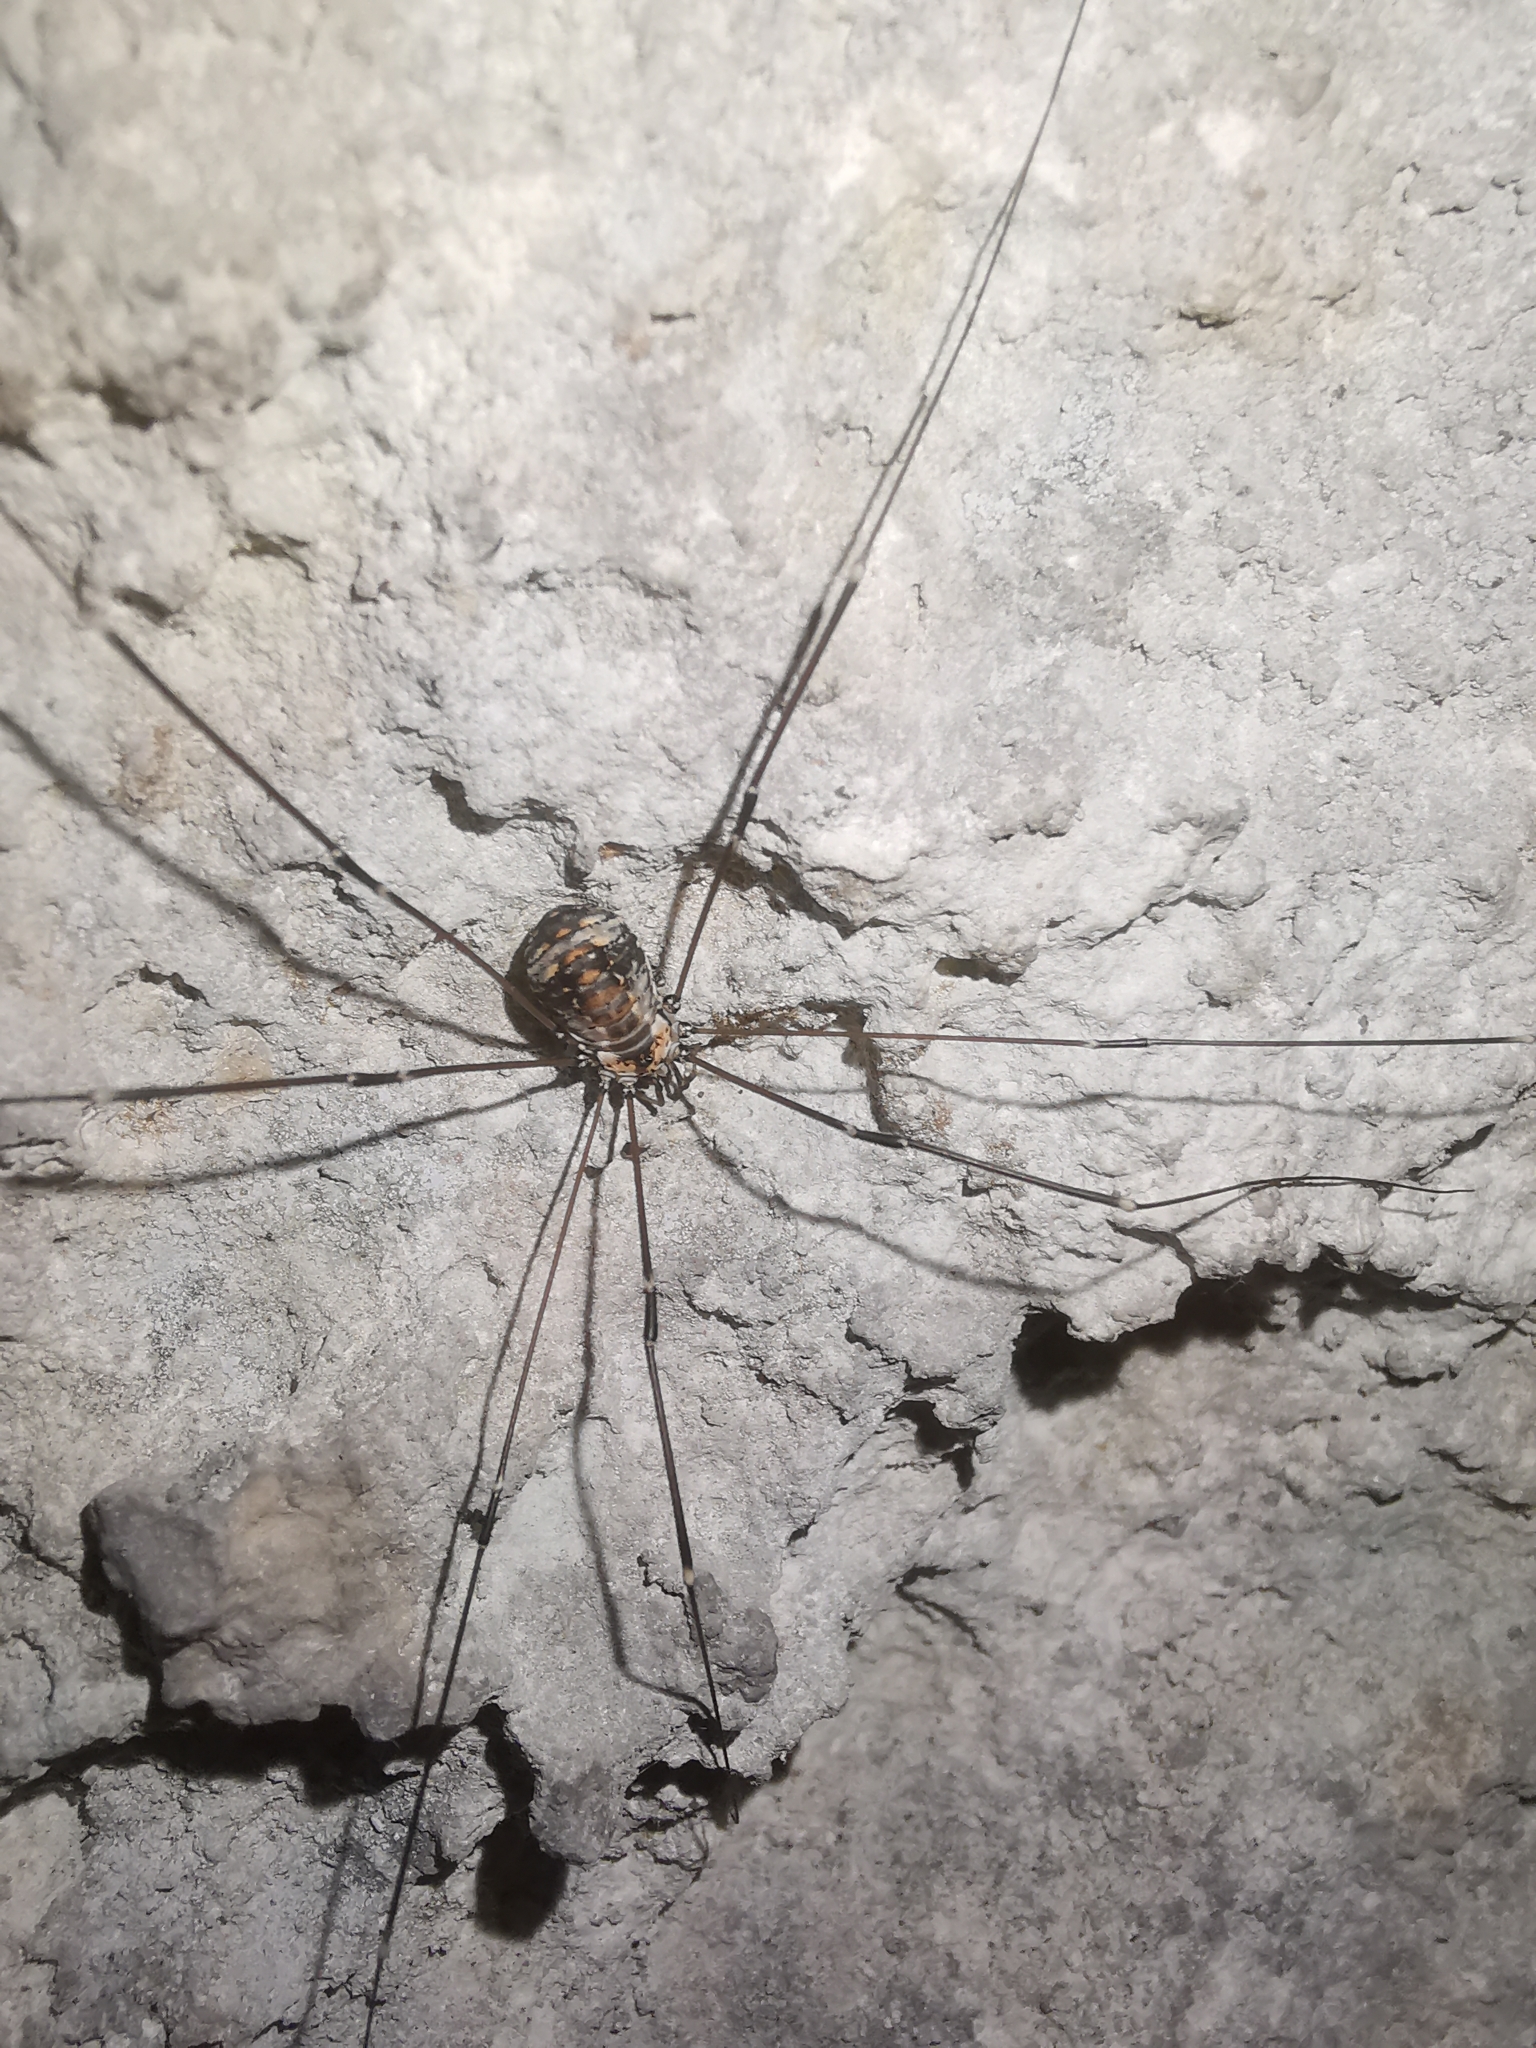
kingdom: Animalia
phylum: Arthropoda
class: Arachnida
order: Opiliones
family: Sclerosomatidae
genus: Leiobunum
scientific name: Leiobunum limbatum
